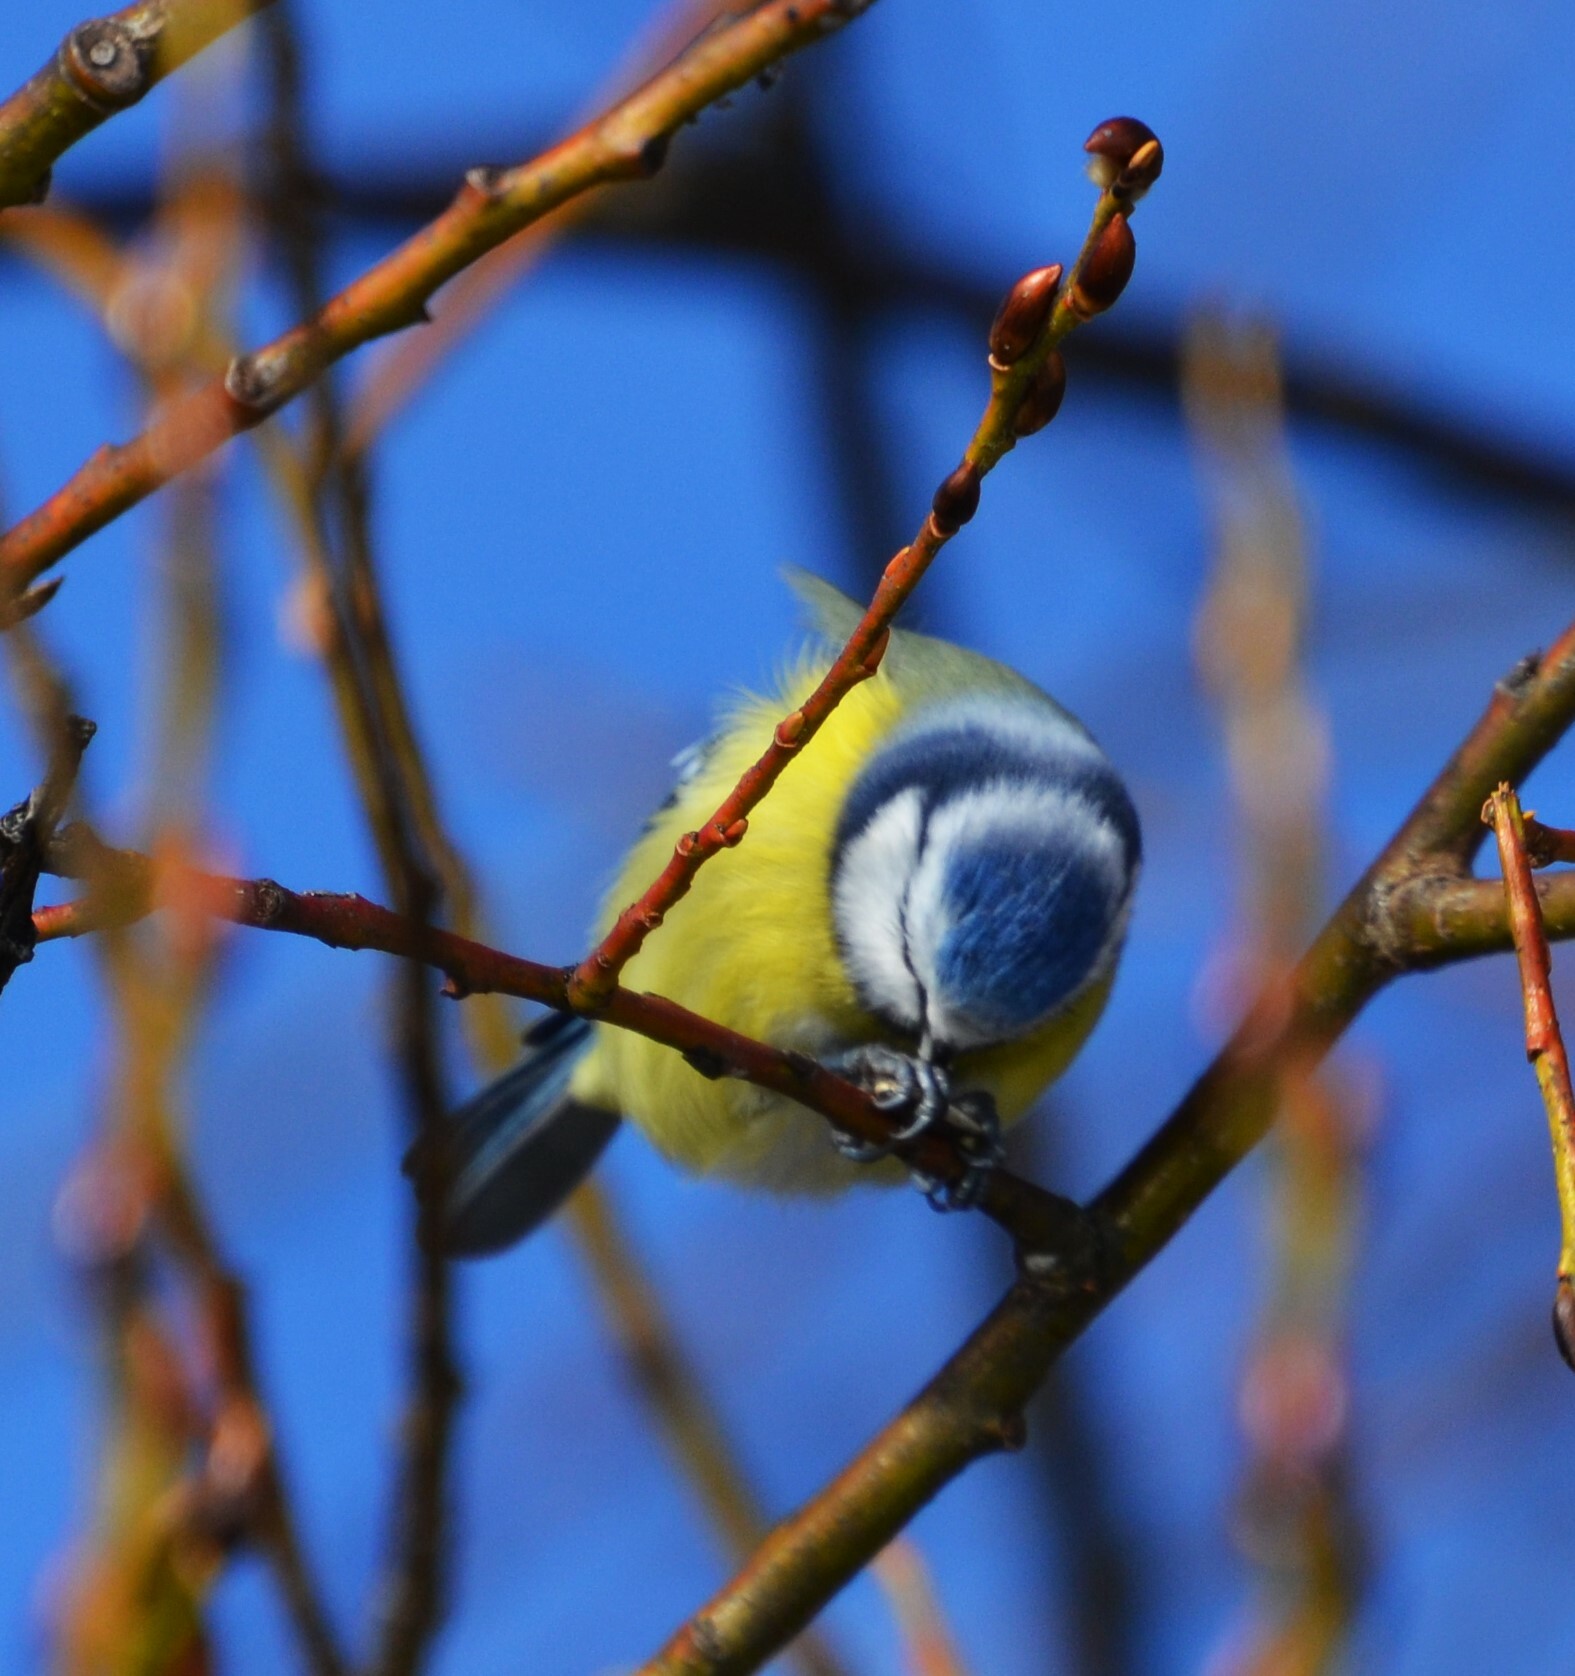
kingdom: Animalia
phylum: Chordata
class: Aves
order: Passeriformes
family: Paridae
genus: Cyanistes
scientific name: Cyanistes caeruleus
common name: Eurasian blue tit
